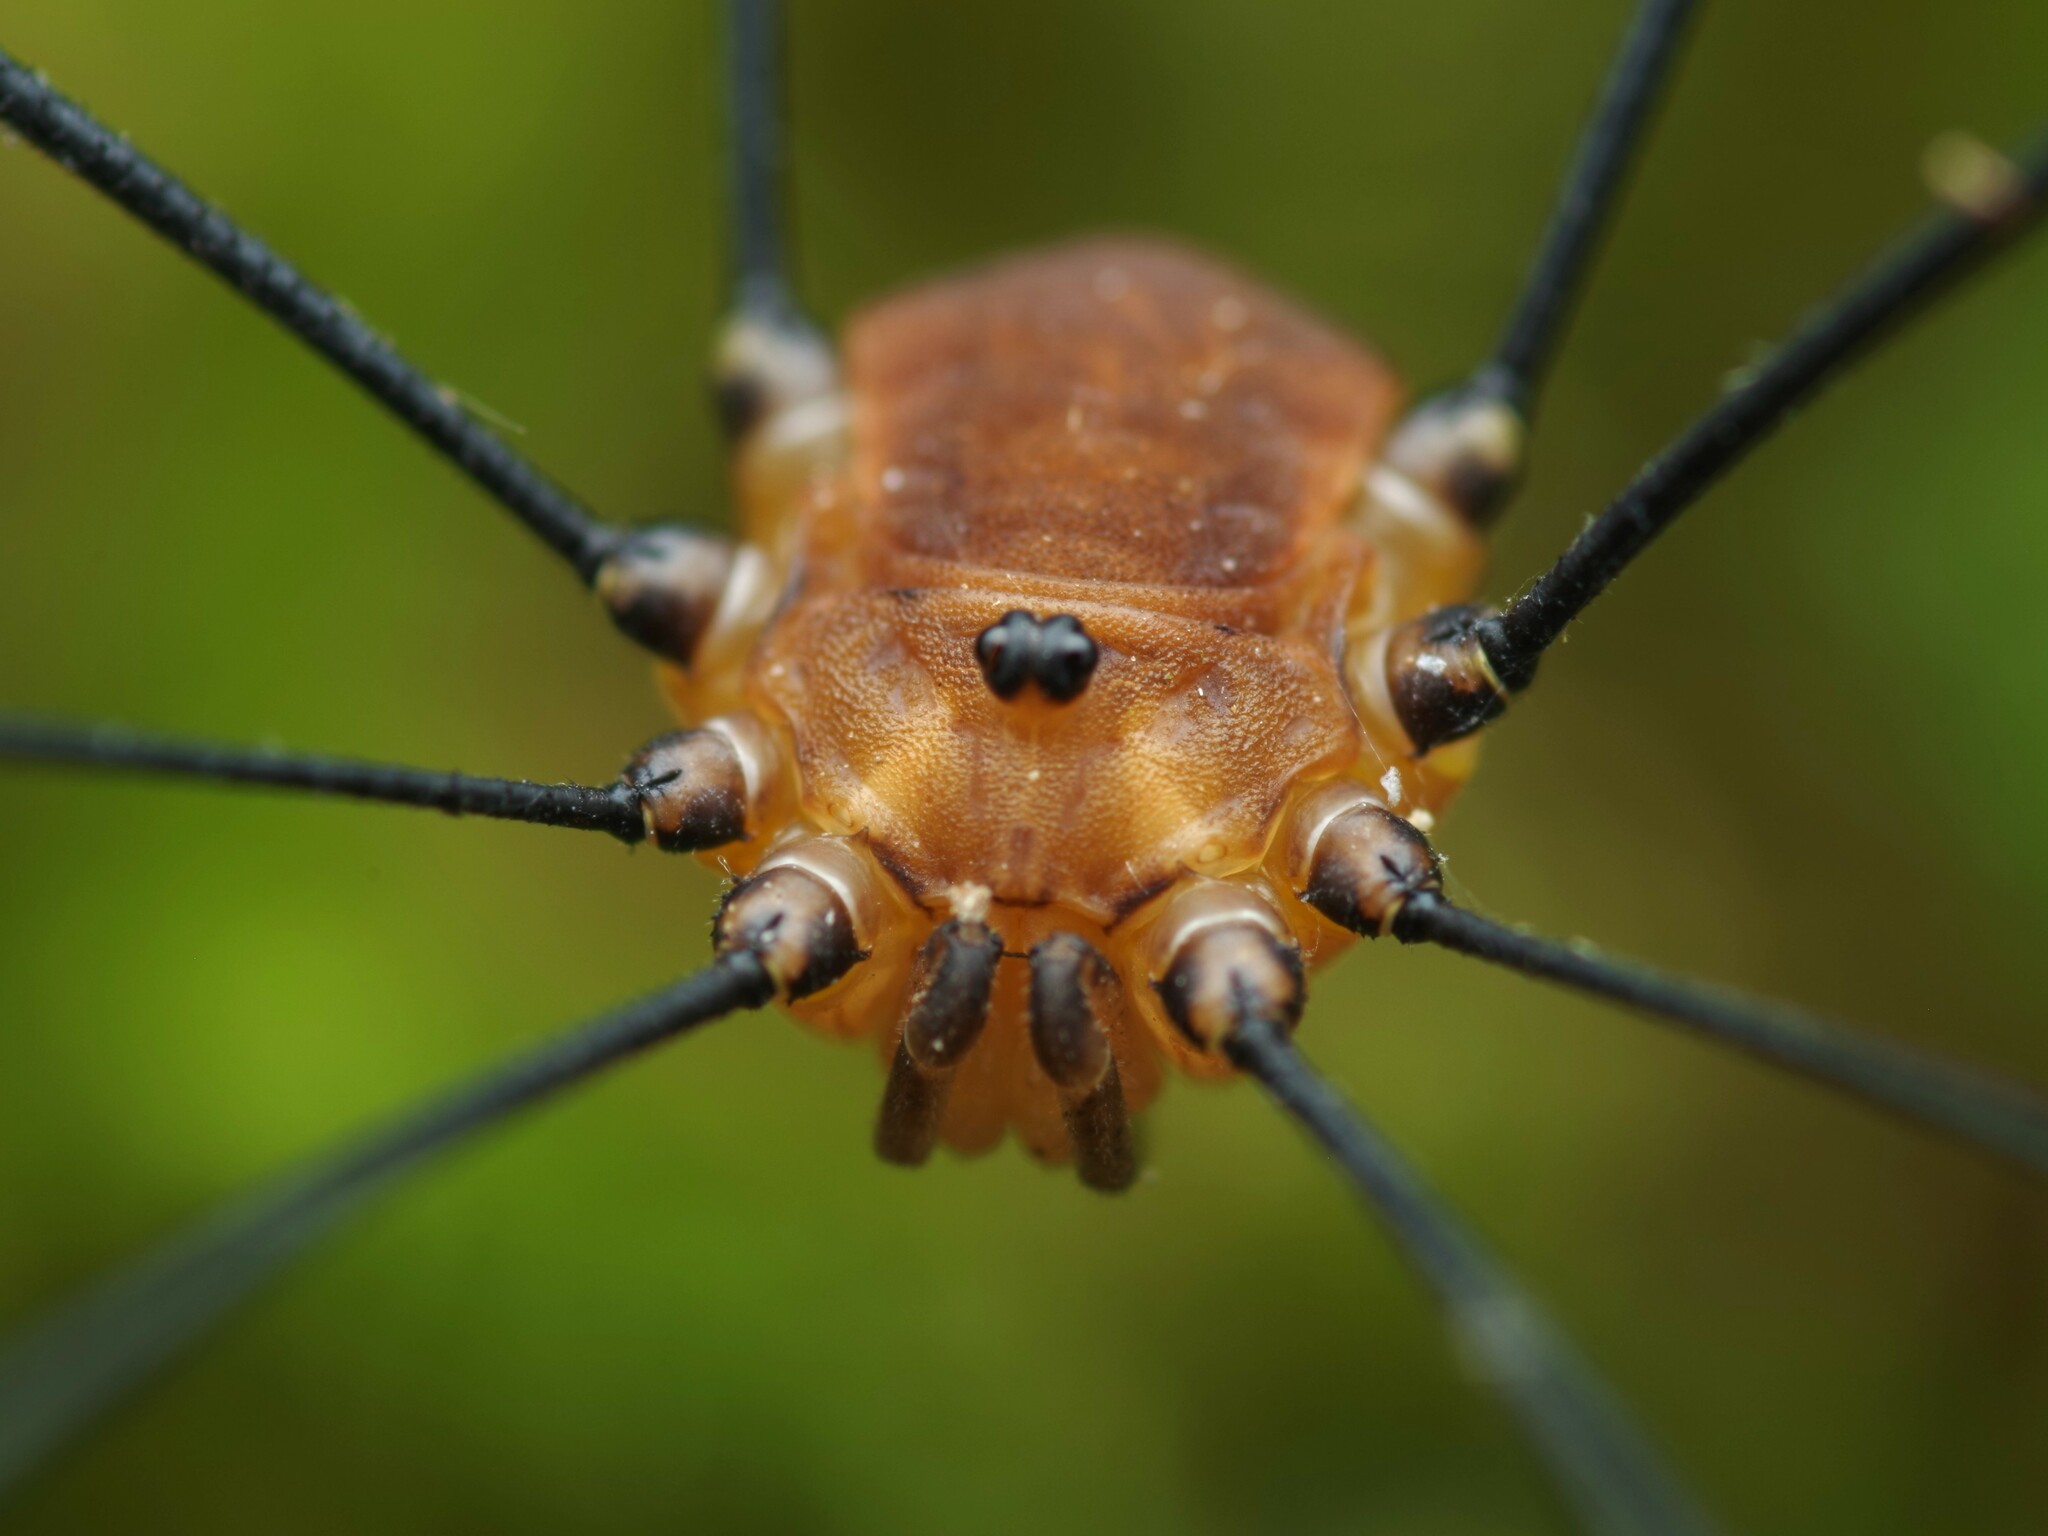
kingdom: Animalia
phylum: Arthropoda
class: Arachnida
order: Opiliones
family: Sclerosomatidae
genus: Leiobunum
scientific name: Leiobunum rotundum
